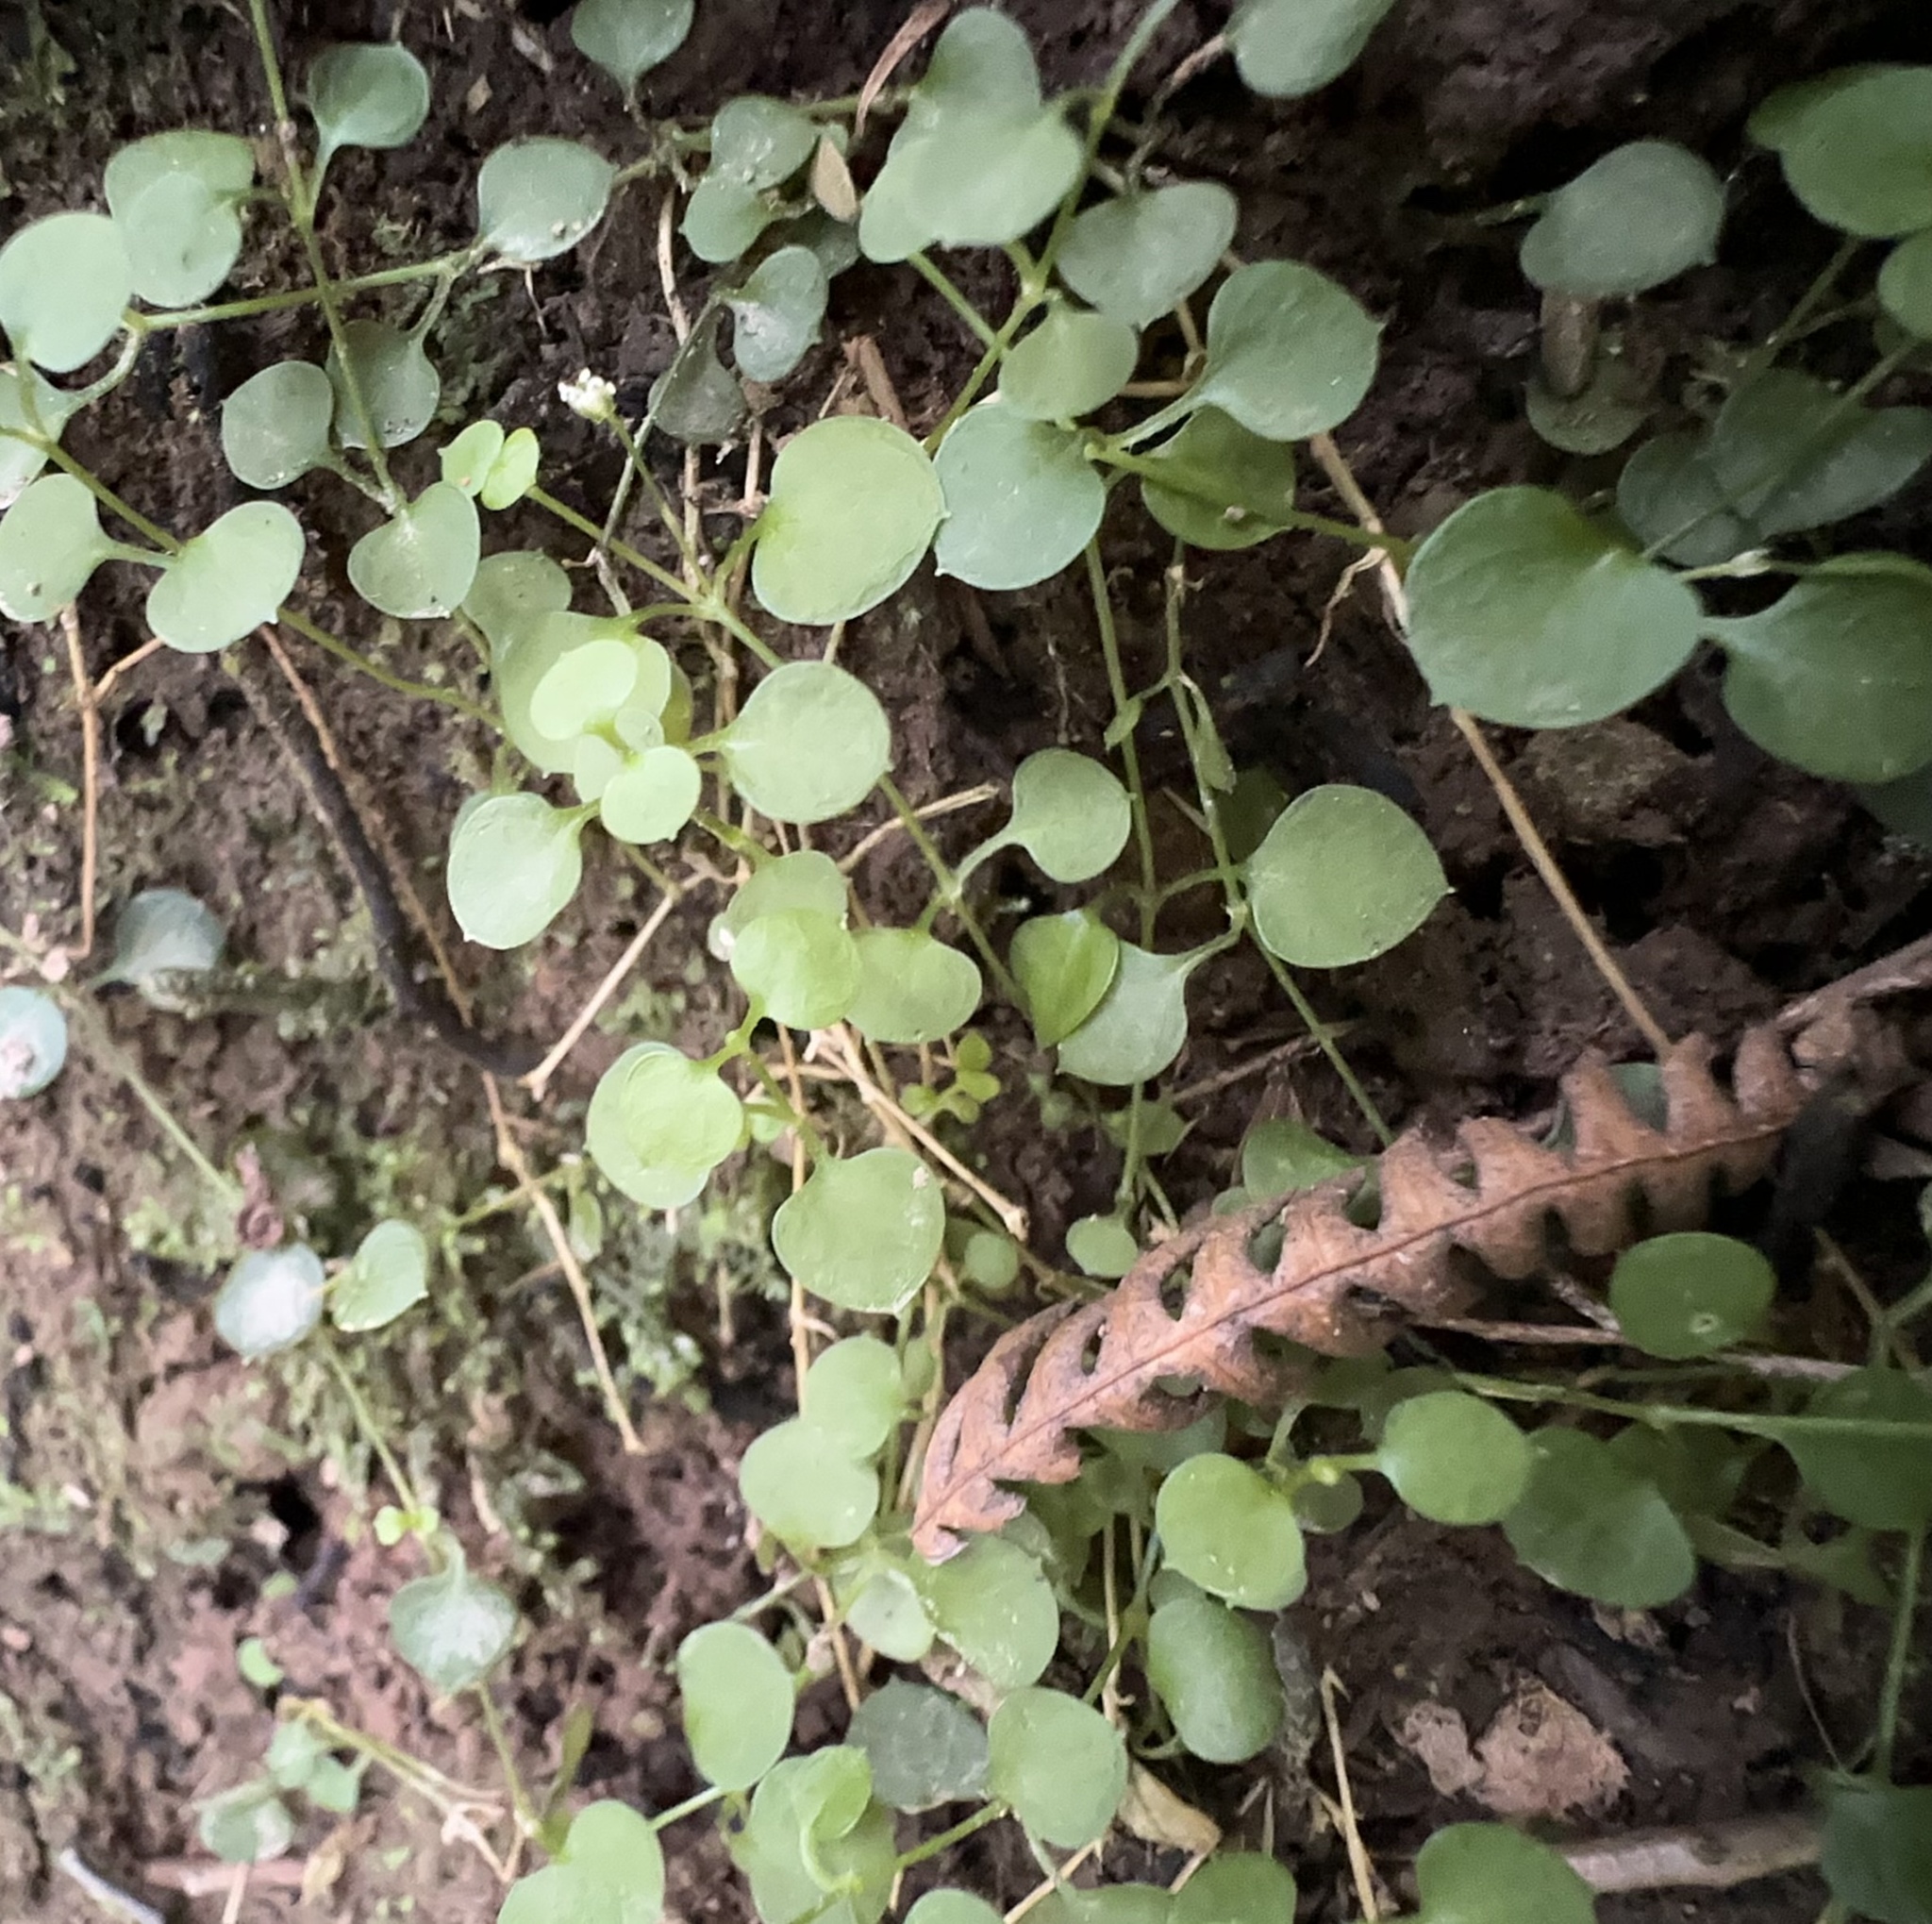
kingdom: Plantae
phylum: Tracheophyta
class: Magnoliopsida
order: Caryophyllales
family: Caryophyllaceae
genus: Stellaria
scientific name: Stellaria parviflora
